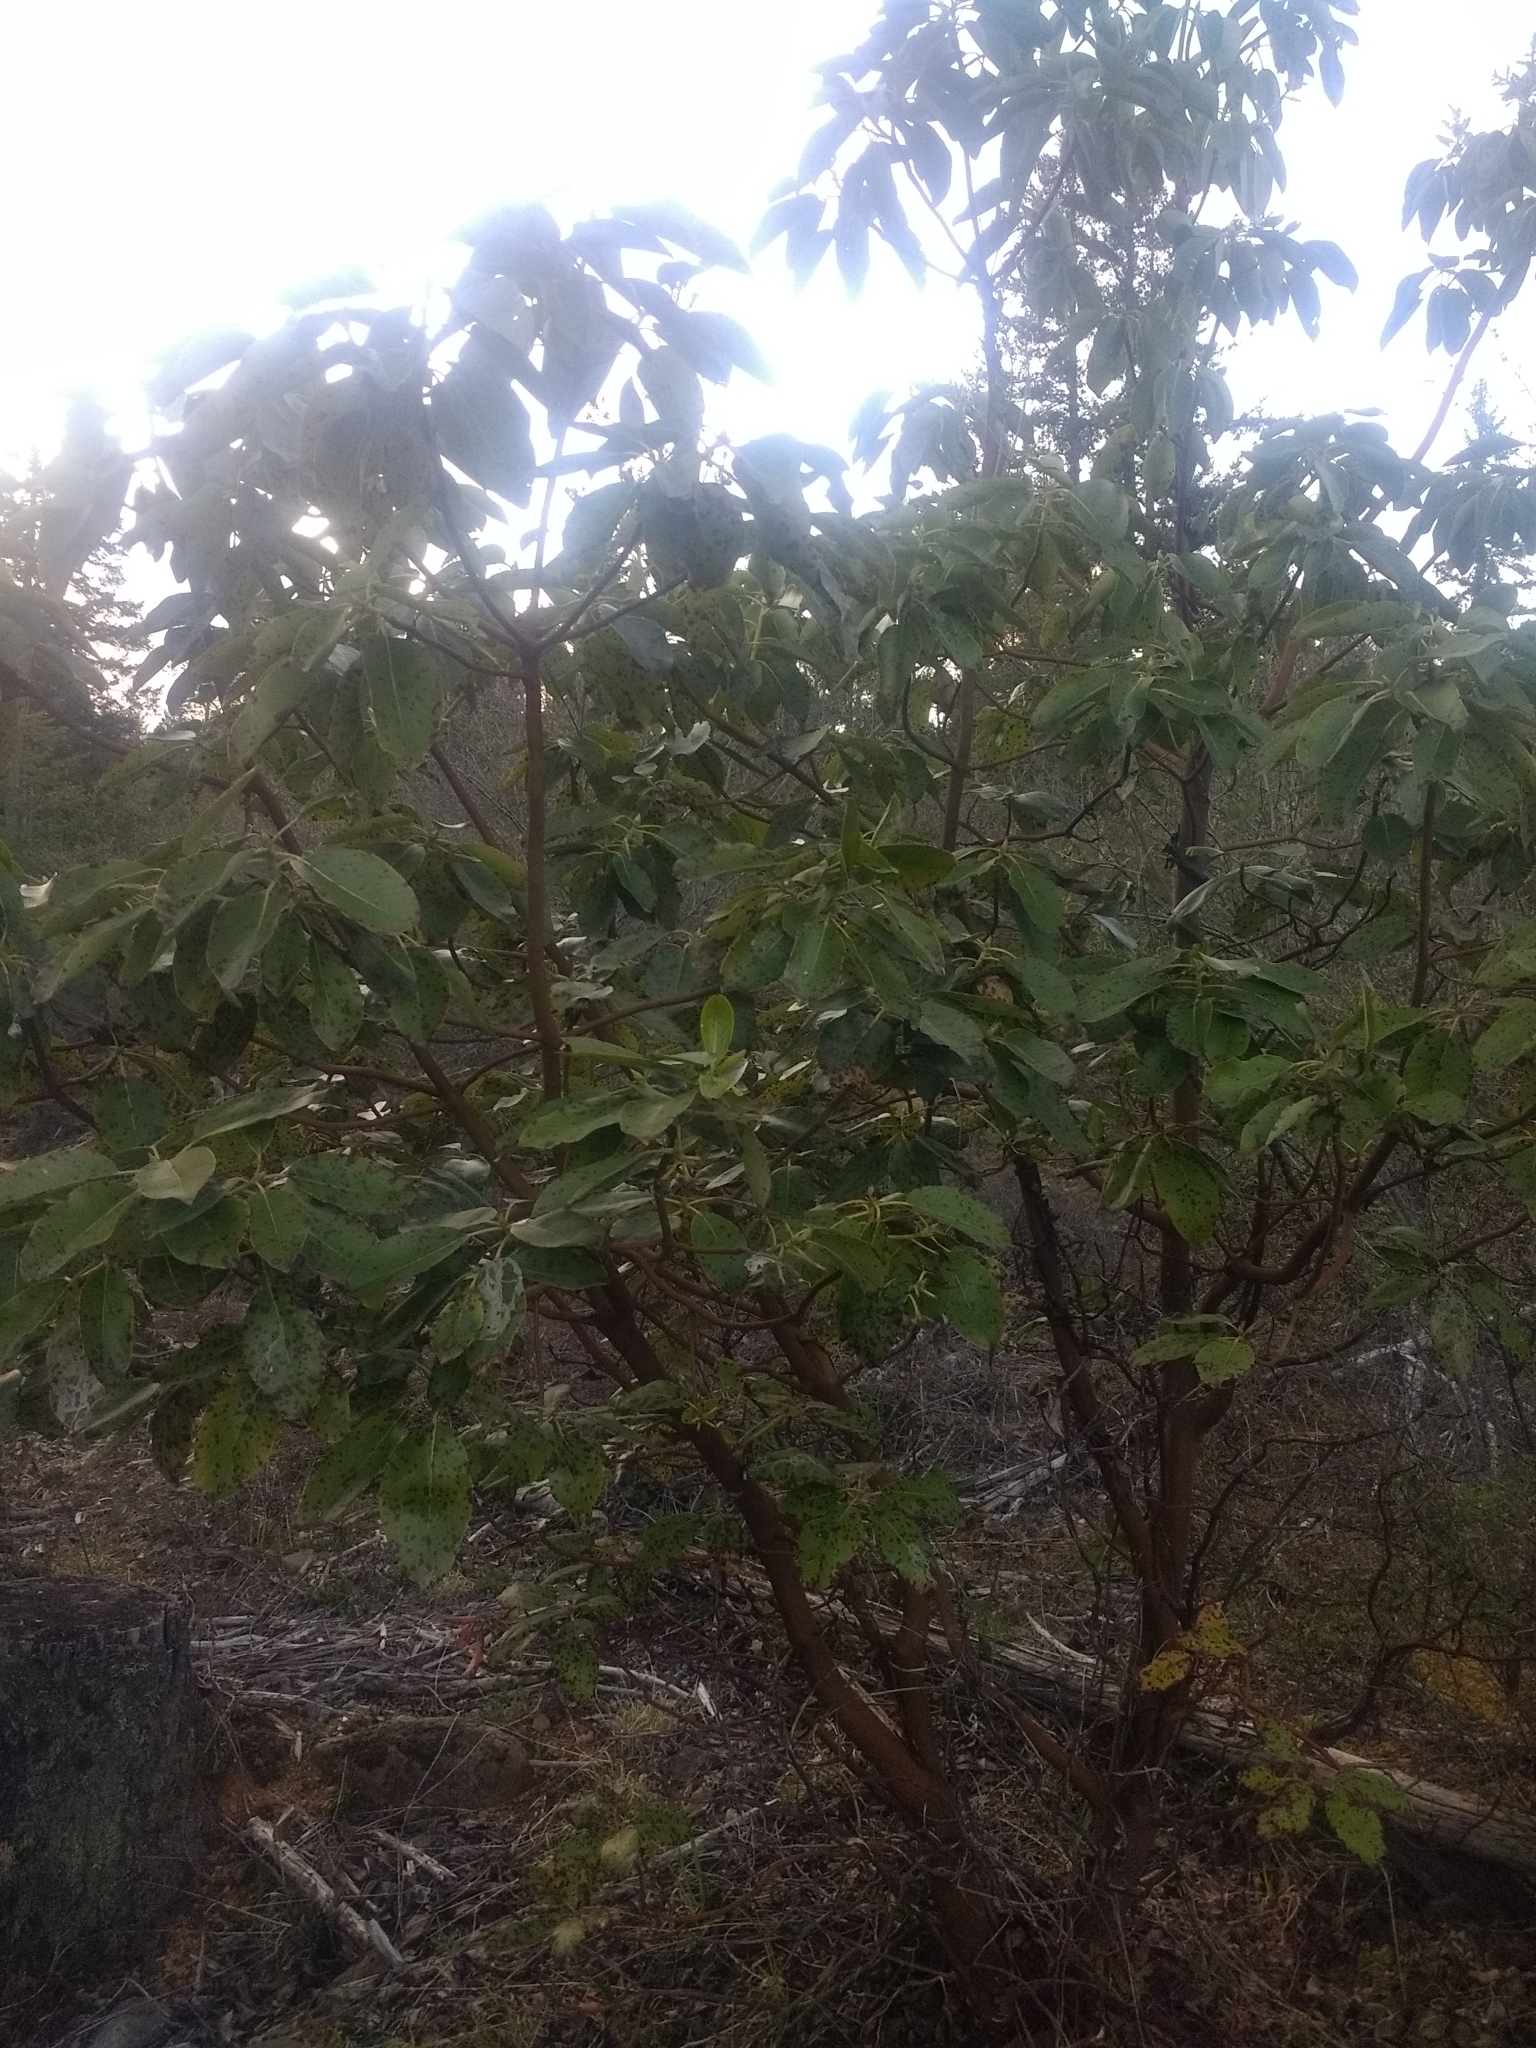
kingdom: Plantae
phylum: Tracheophyta
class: Magnoliopsida
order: Ericales
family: Ericaceae
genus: Arbutus
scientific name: Arbutus menziesii
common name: Pacific madrone
